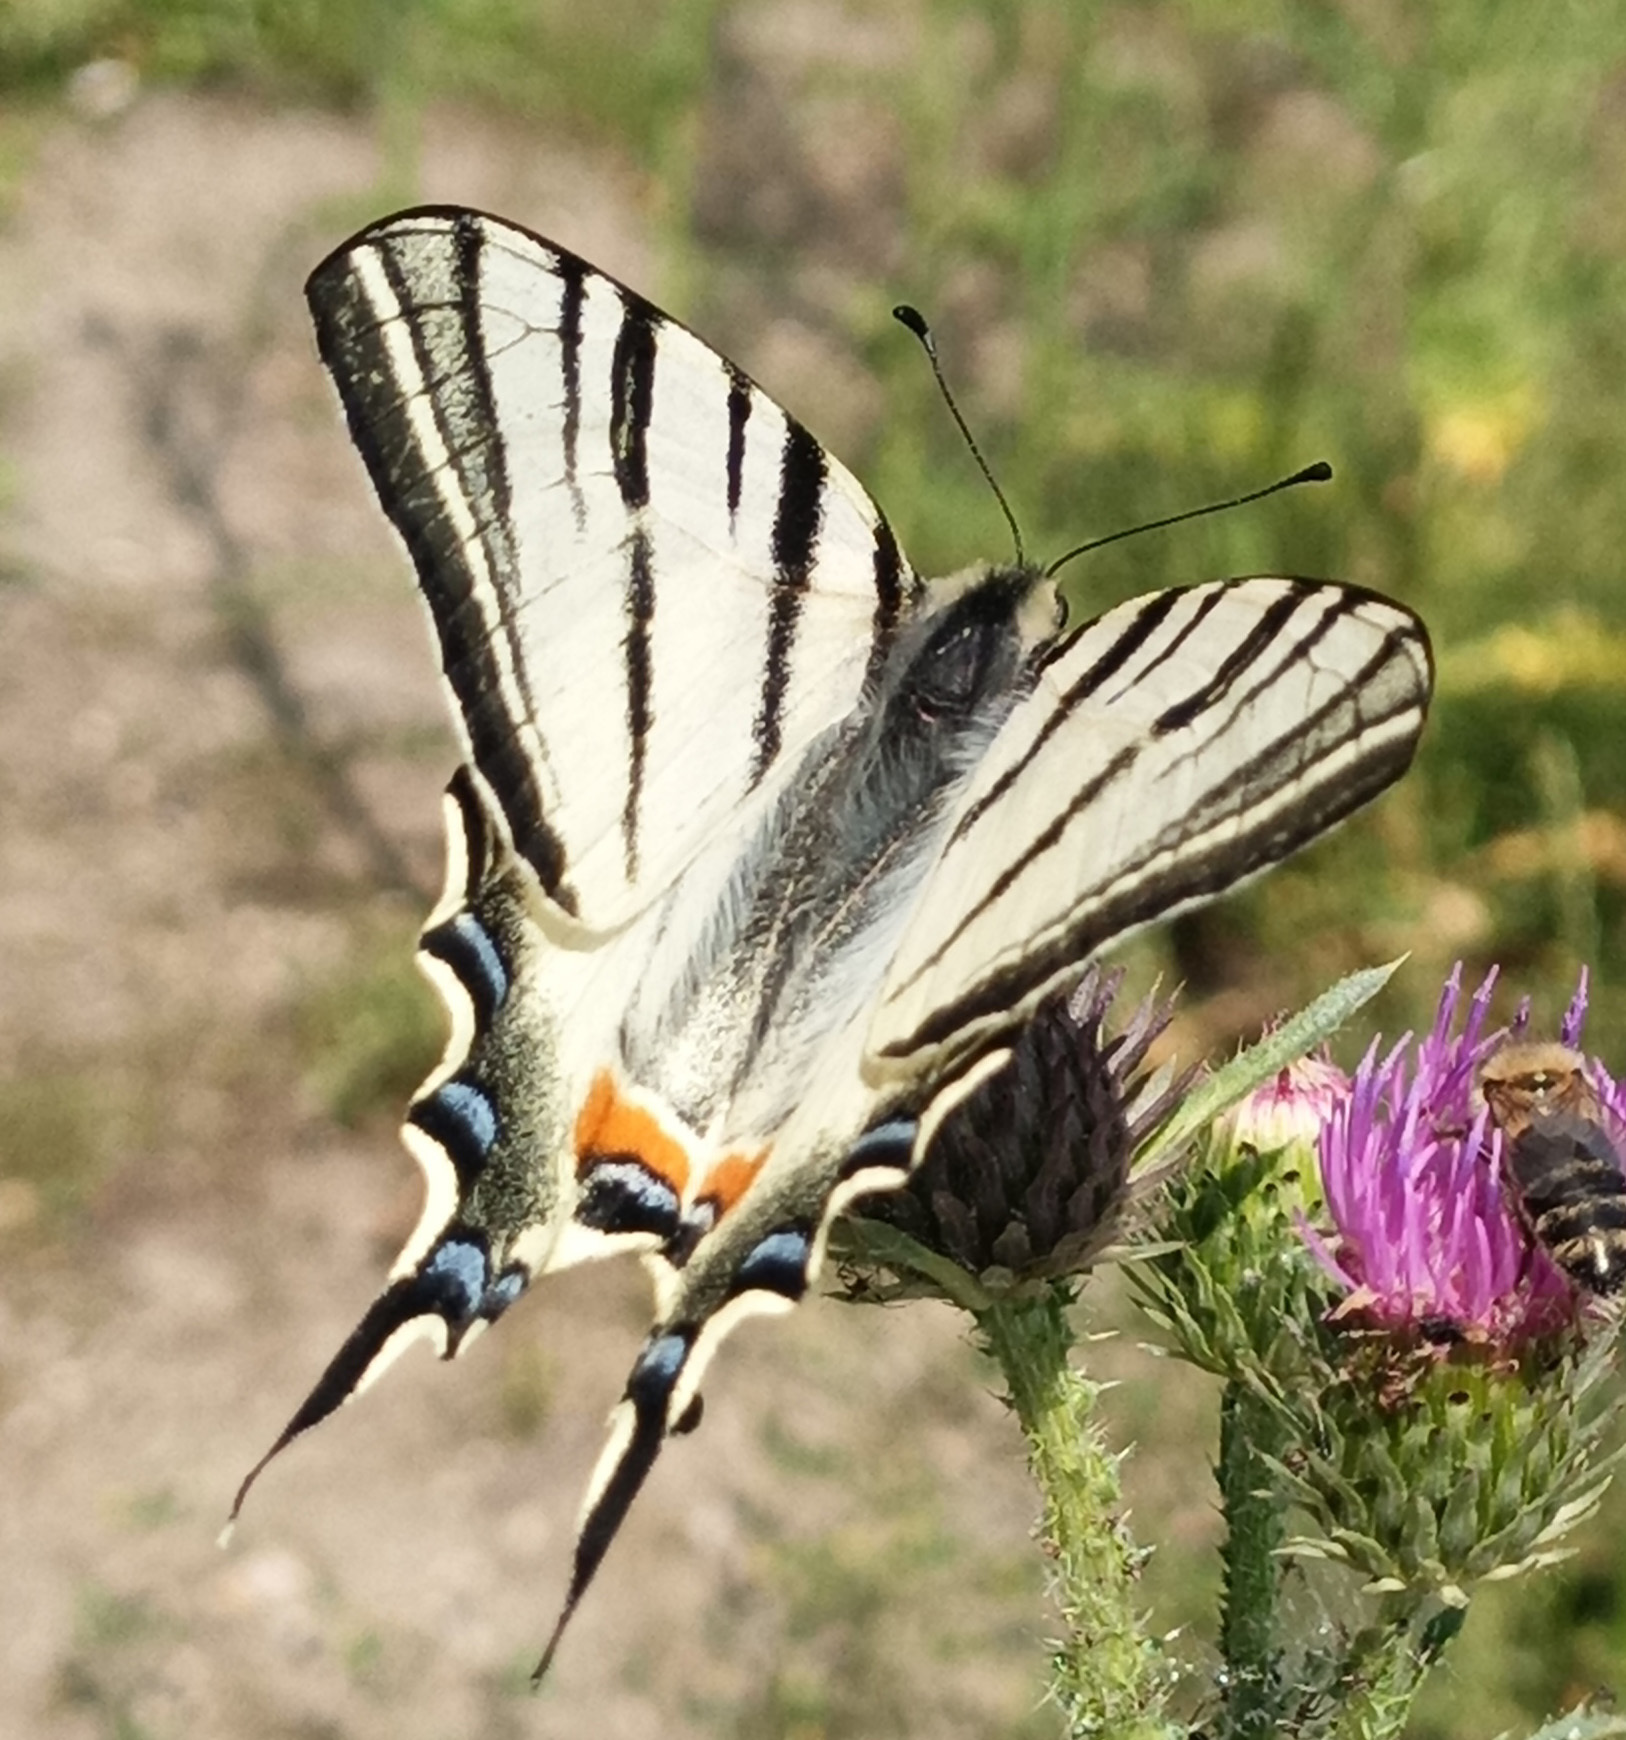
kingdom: Animalia
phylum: Arthropoda
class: Insecta
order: Lepidoptera
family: Papilionidae
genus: Iphiclides
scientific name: Iphiclides podalirius
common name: Scarce swallowtail
